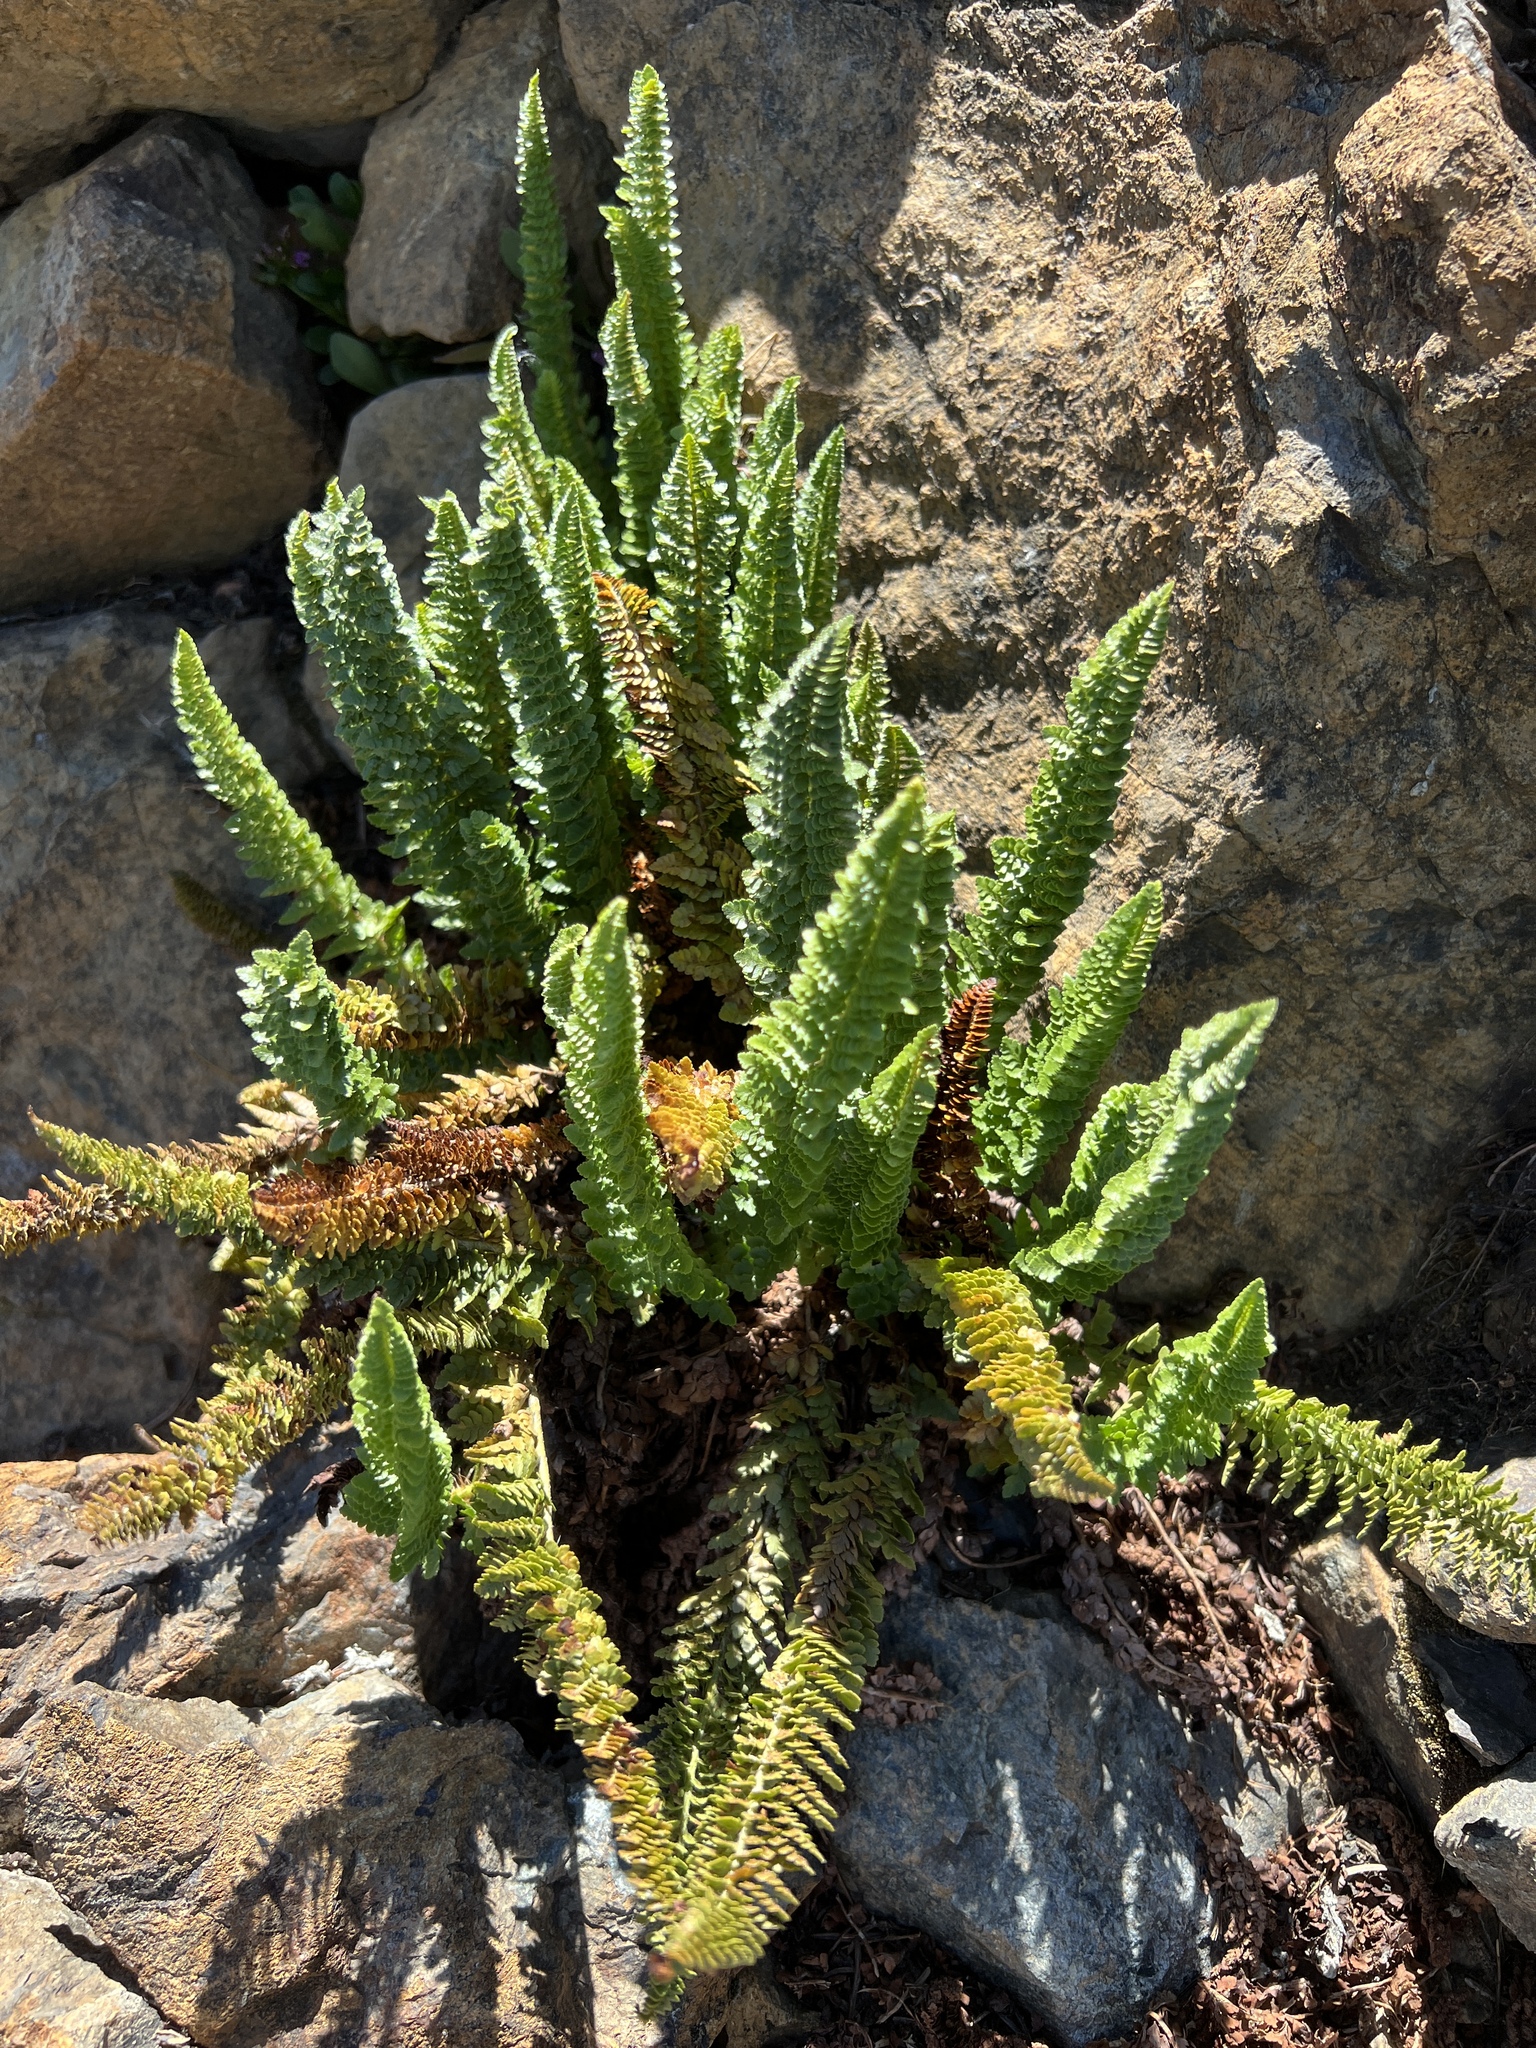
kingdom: Plantae
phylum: Tracheophyta
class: Polypodiopsida
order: Polypodiales
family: Dryopteridaceae
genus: Polystichum
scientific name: Polystichum lemmonii
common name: Lemmon's holly fern
